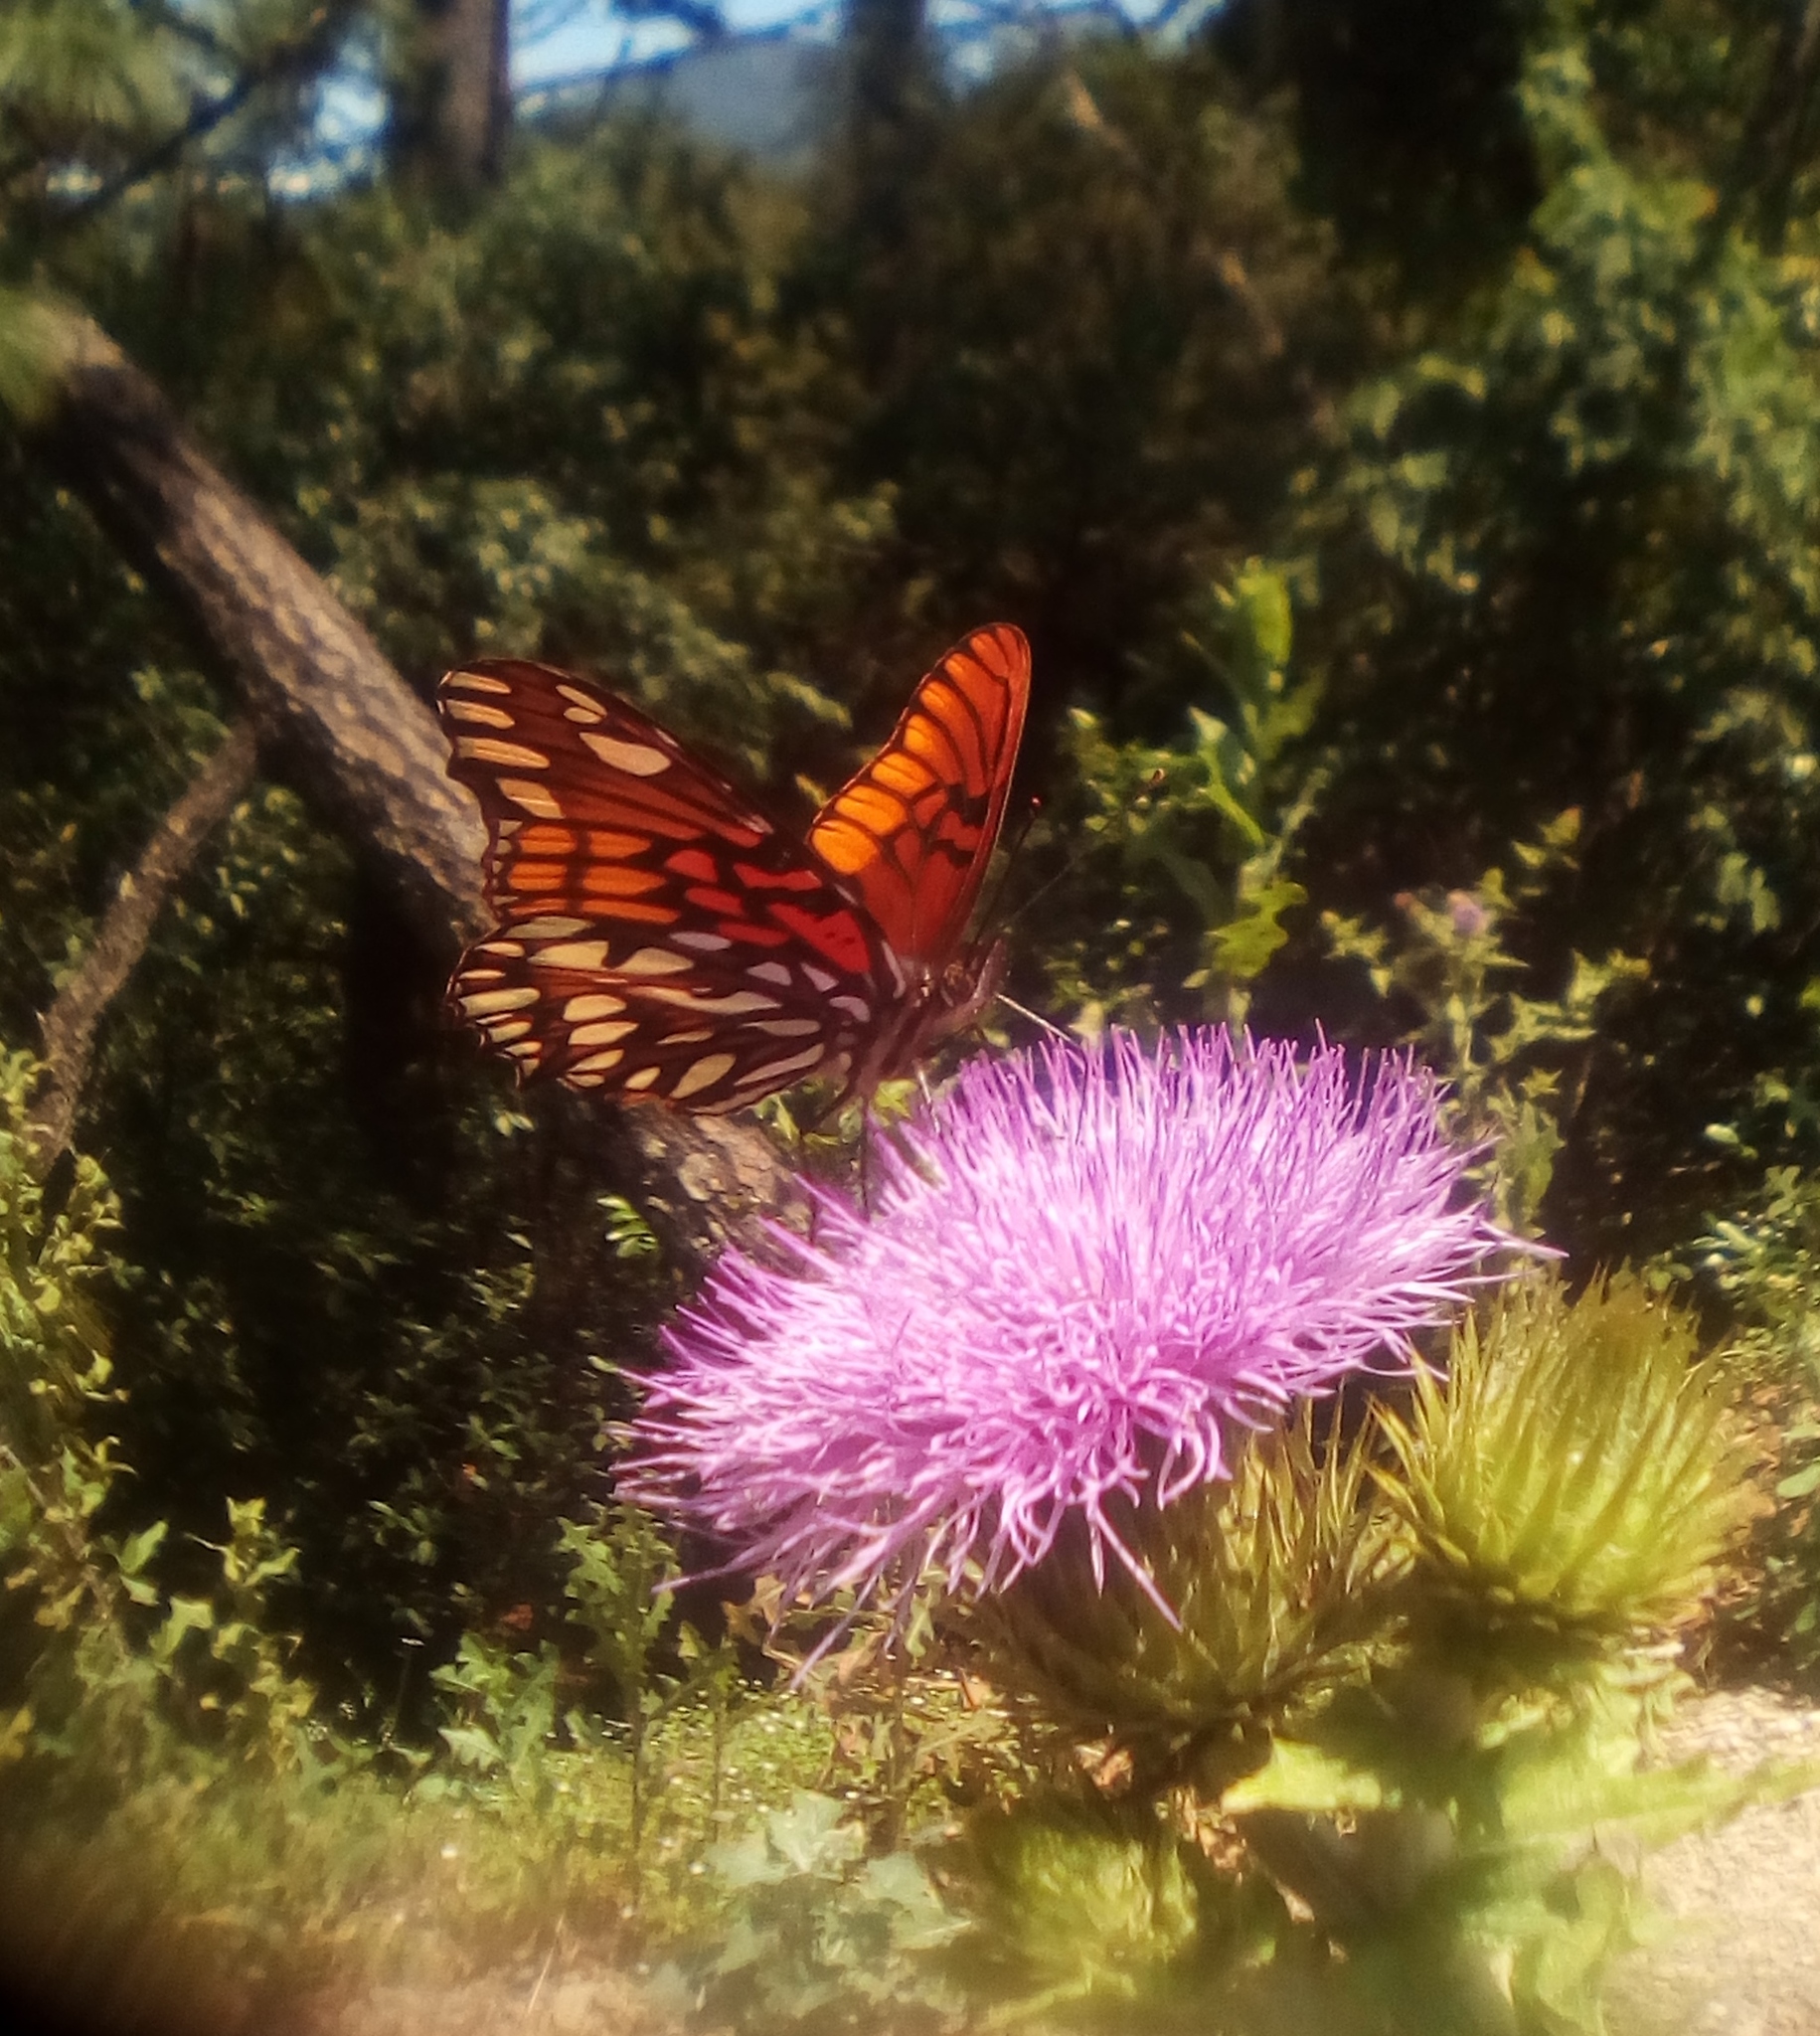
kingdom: Animalia
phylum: Arthropoda
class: Insecta
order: Lepidoptera
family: Nymphalidae
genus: Dione
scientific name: Dione moneta
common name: Mexican silverspot
